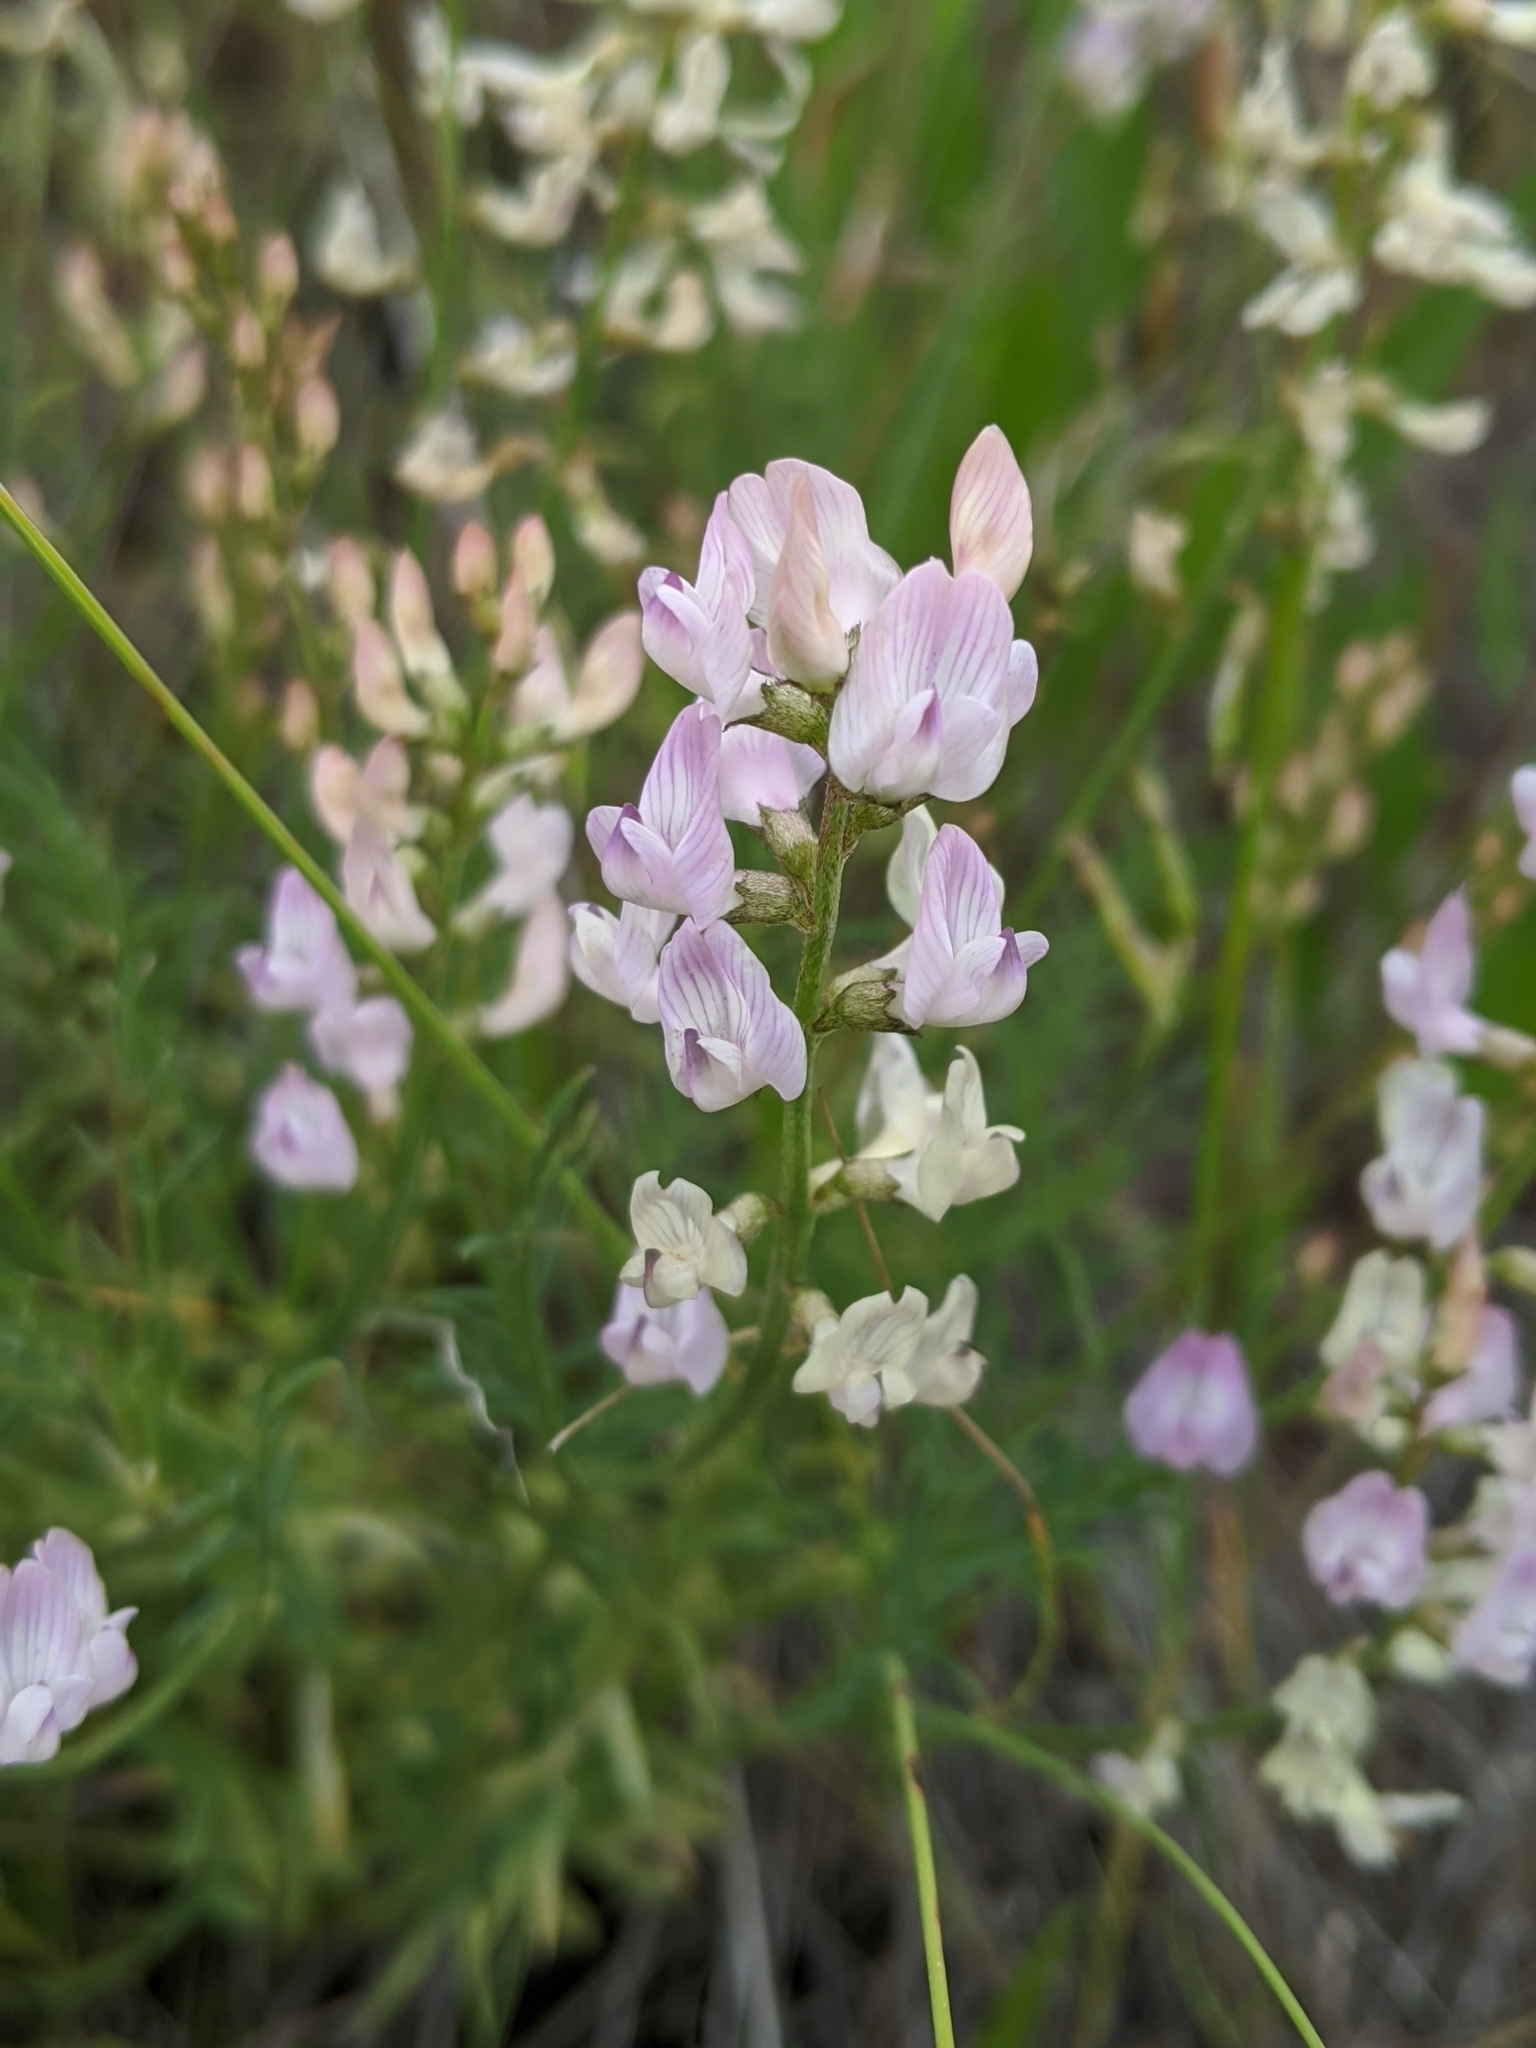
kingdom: Plantae
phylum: Tracheophyta
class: Magnoliopsida
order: Fabales
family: Fabaceae
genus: Astragalus
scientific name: Astragalus miser
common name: Timber milkvetch
